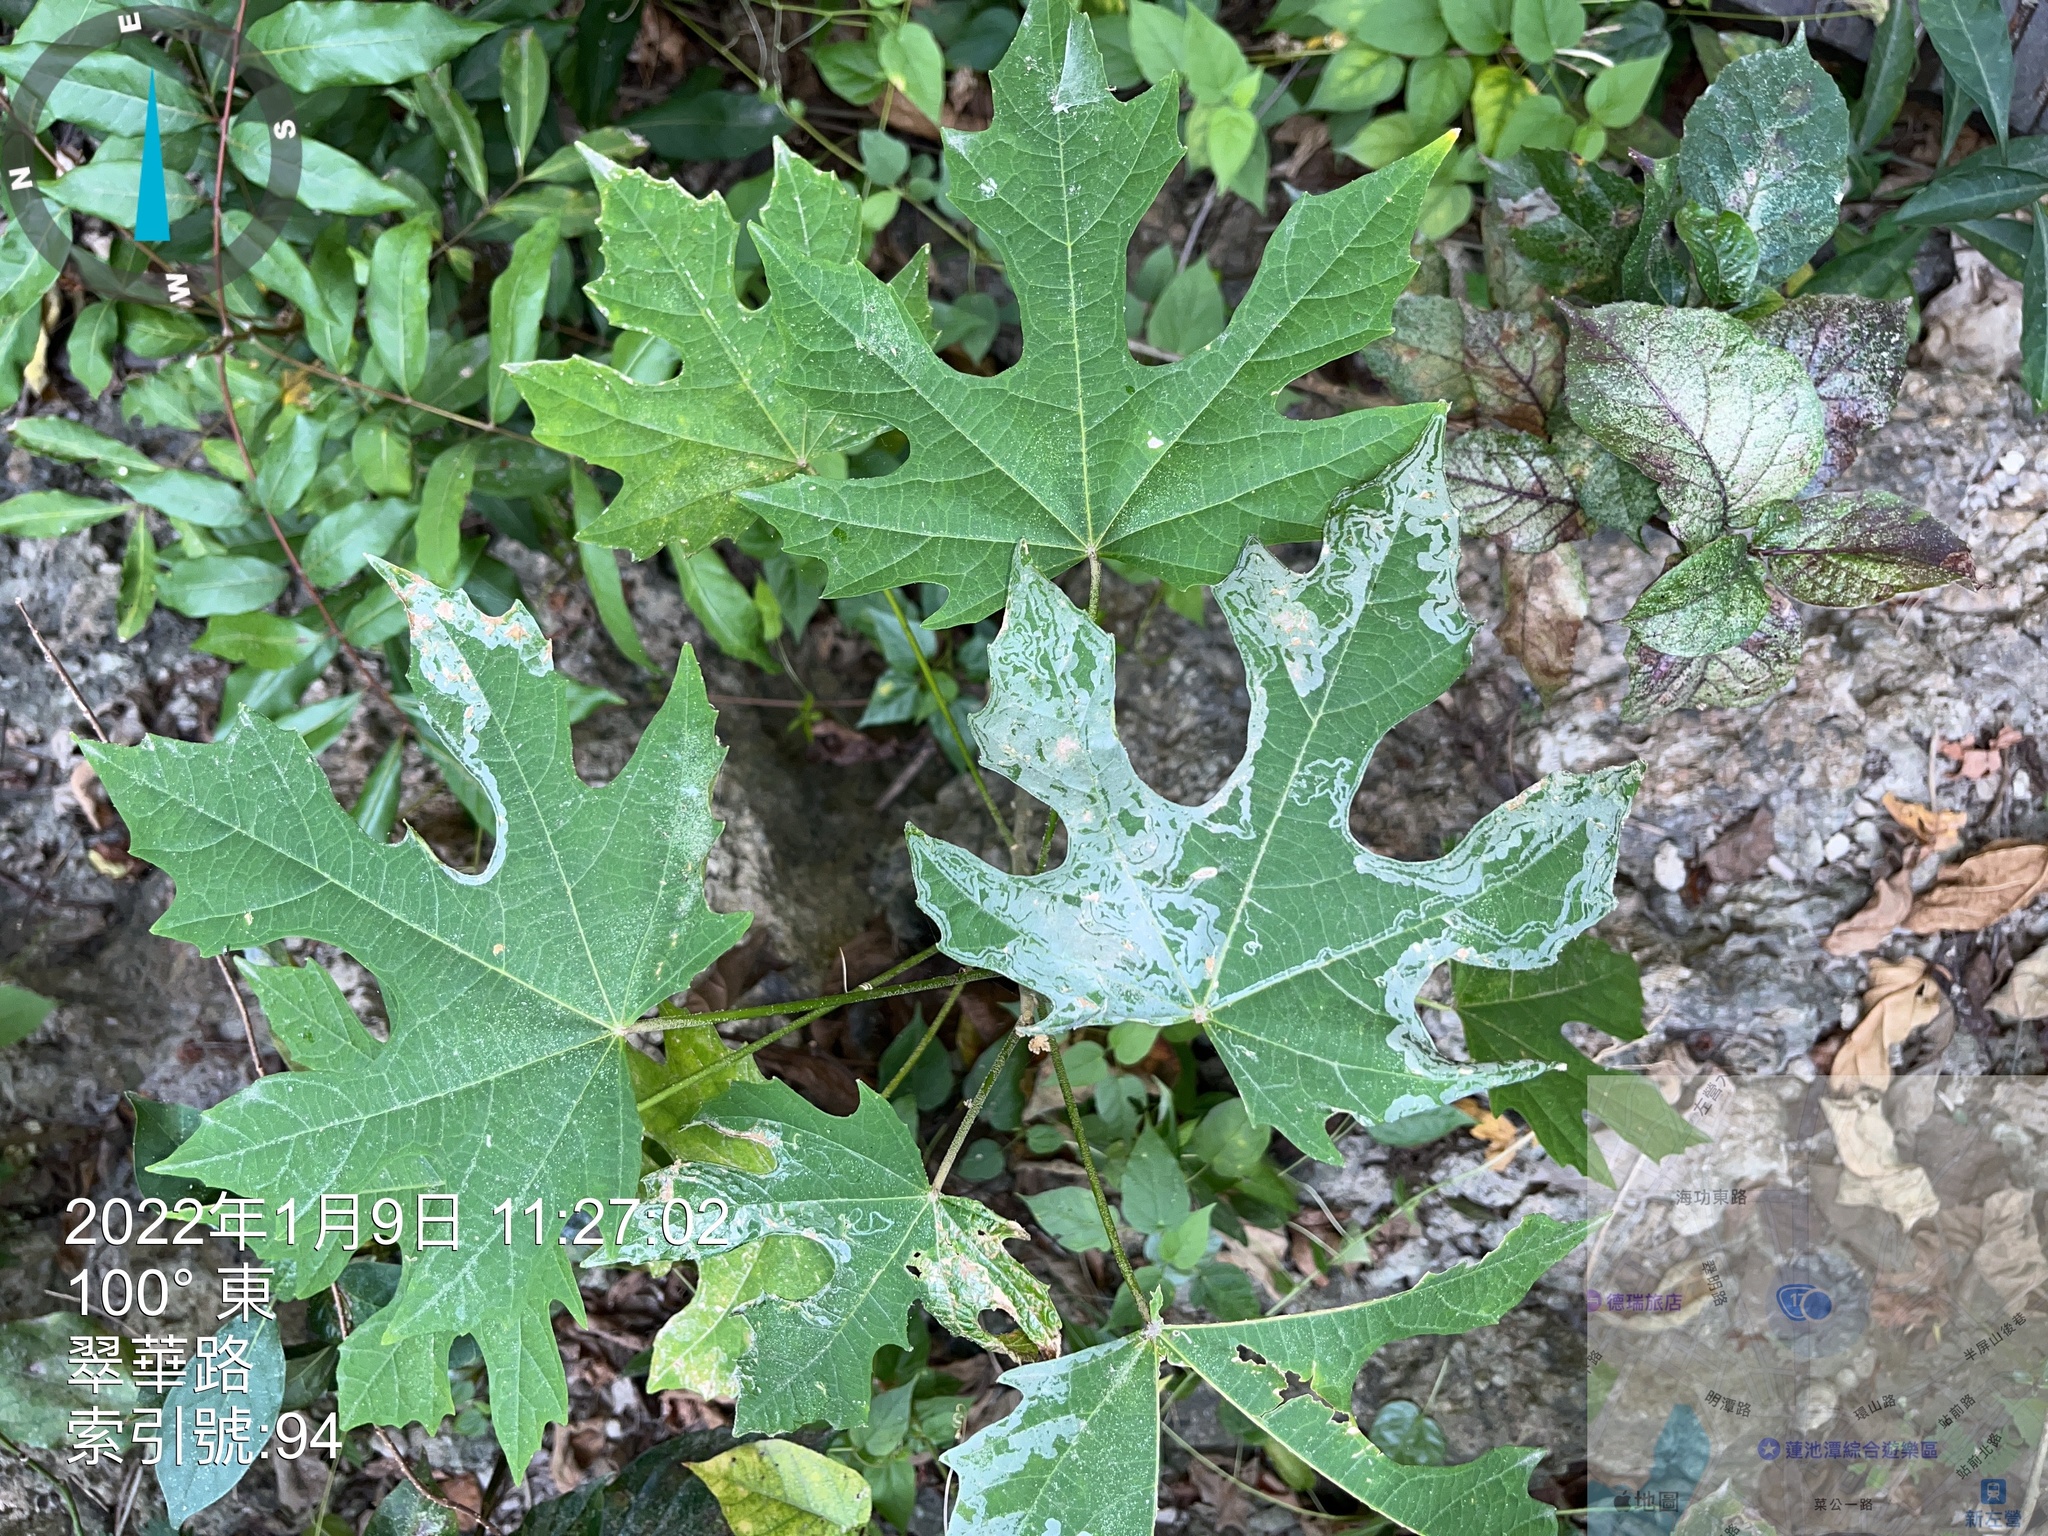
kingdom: Plantae
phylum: Tracheophyta
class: Magnoliopsida
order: Malpighiales
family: Euphorbiaceae
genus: Melanolepis
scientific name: Melanolepis multiglandulosa
